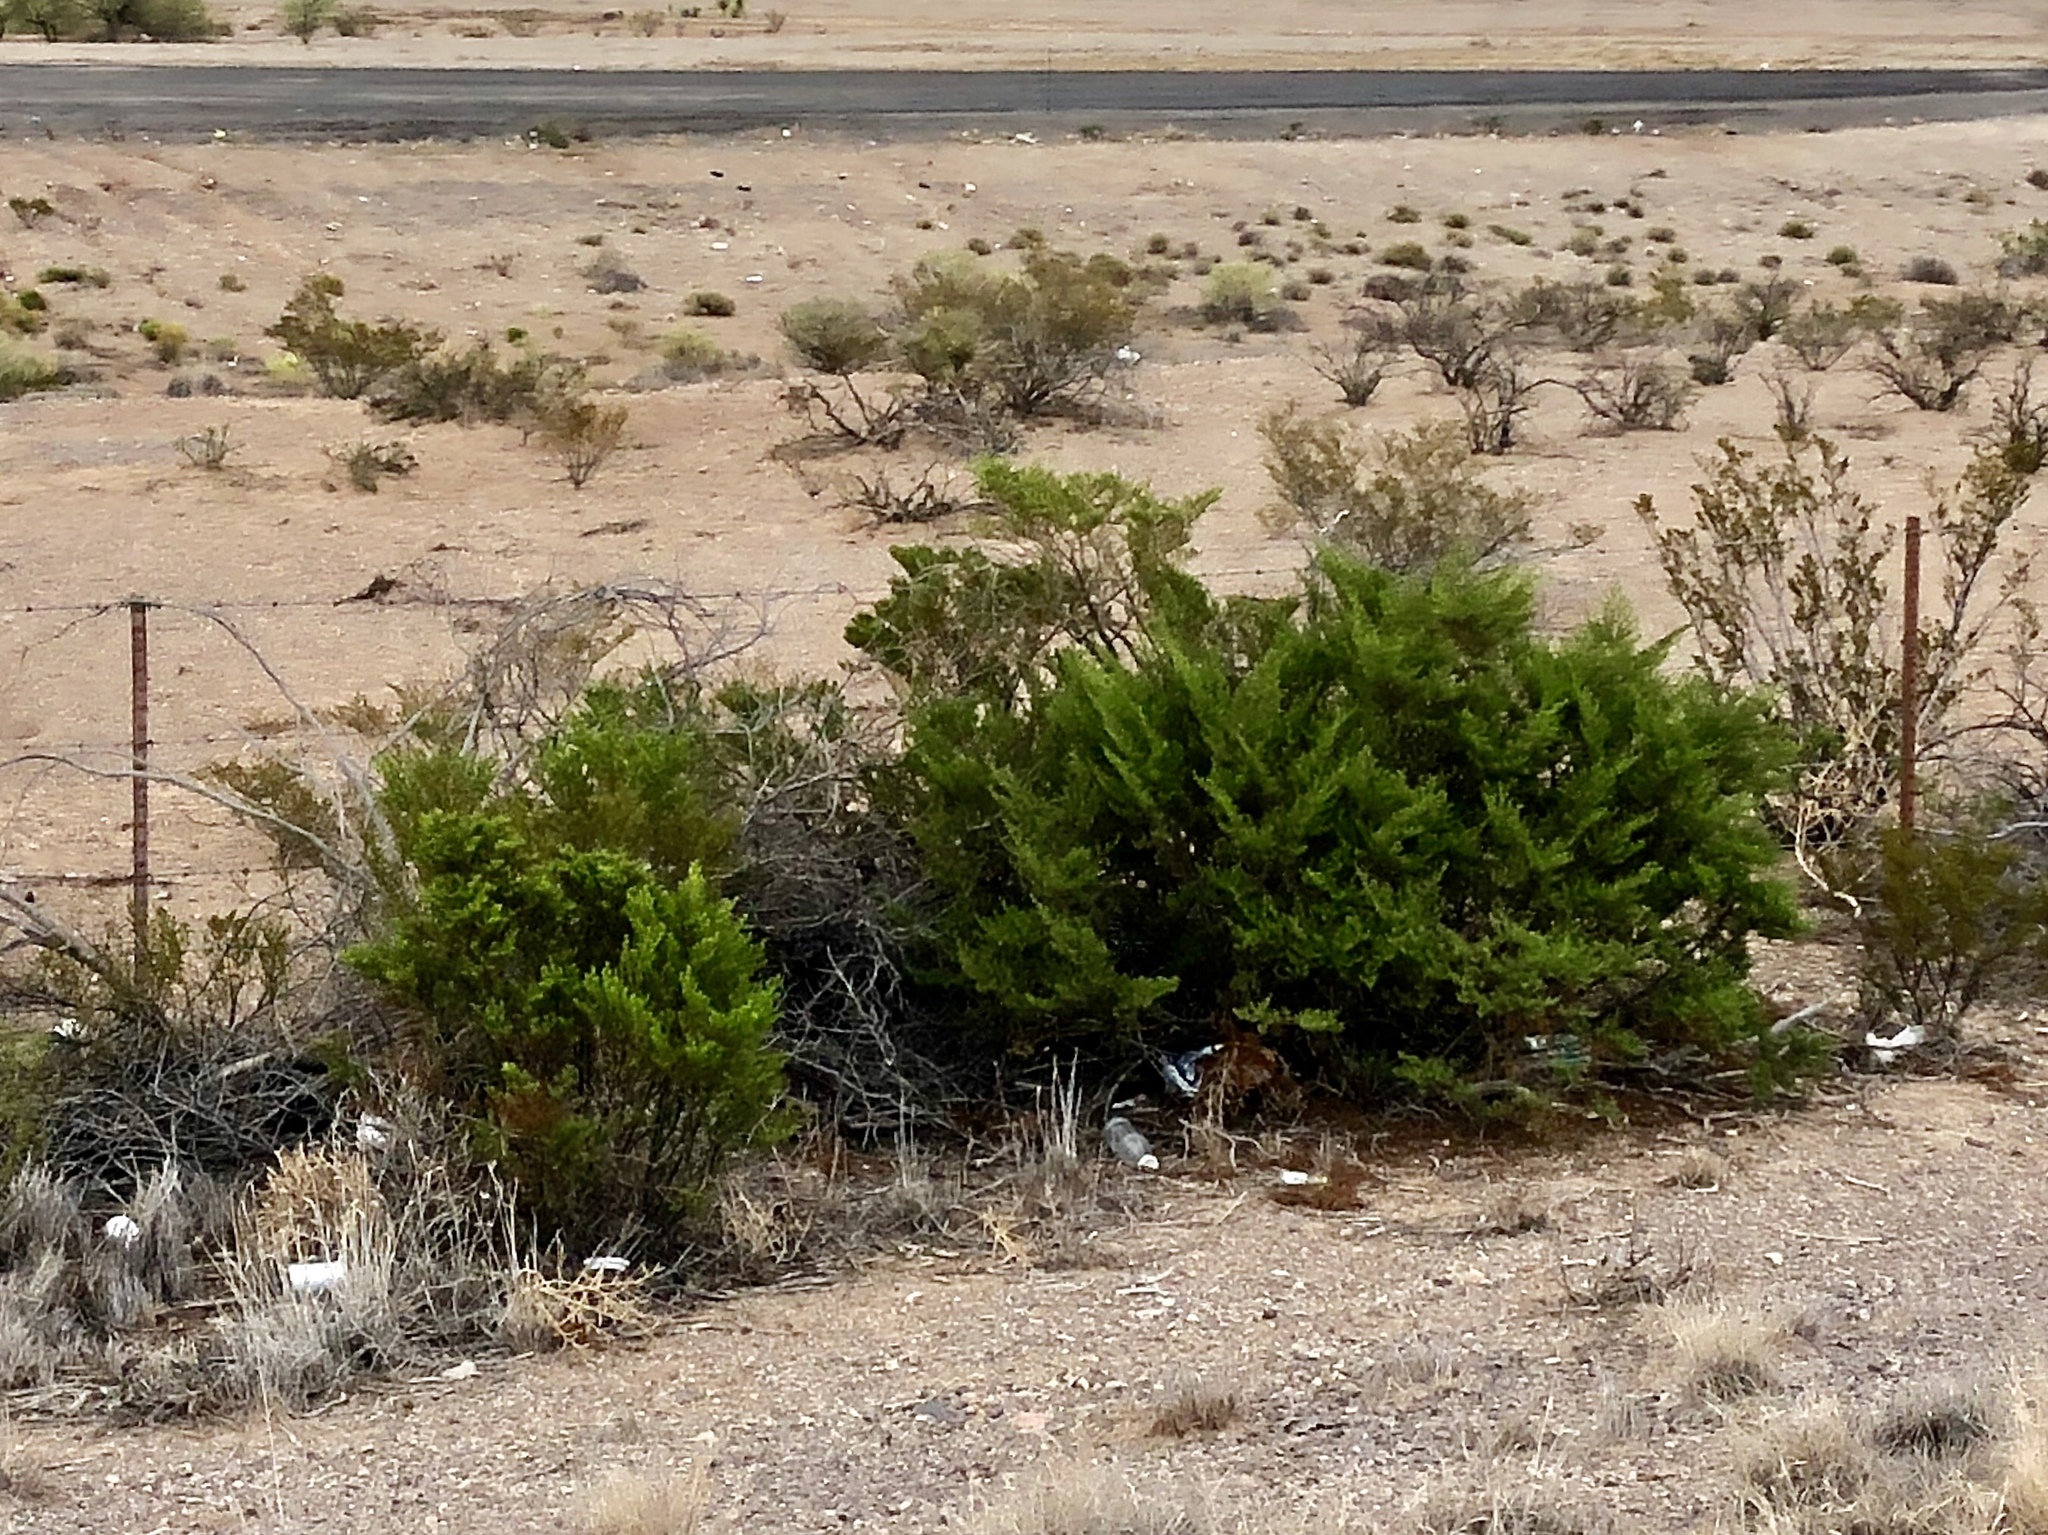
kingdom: Plantae
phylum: Tracheophyta
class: Magnoliopsida
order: Zygophyllales
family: Zygophyllaceae
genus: Larrea
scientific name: Larrea tridentata
